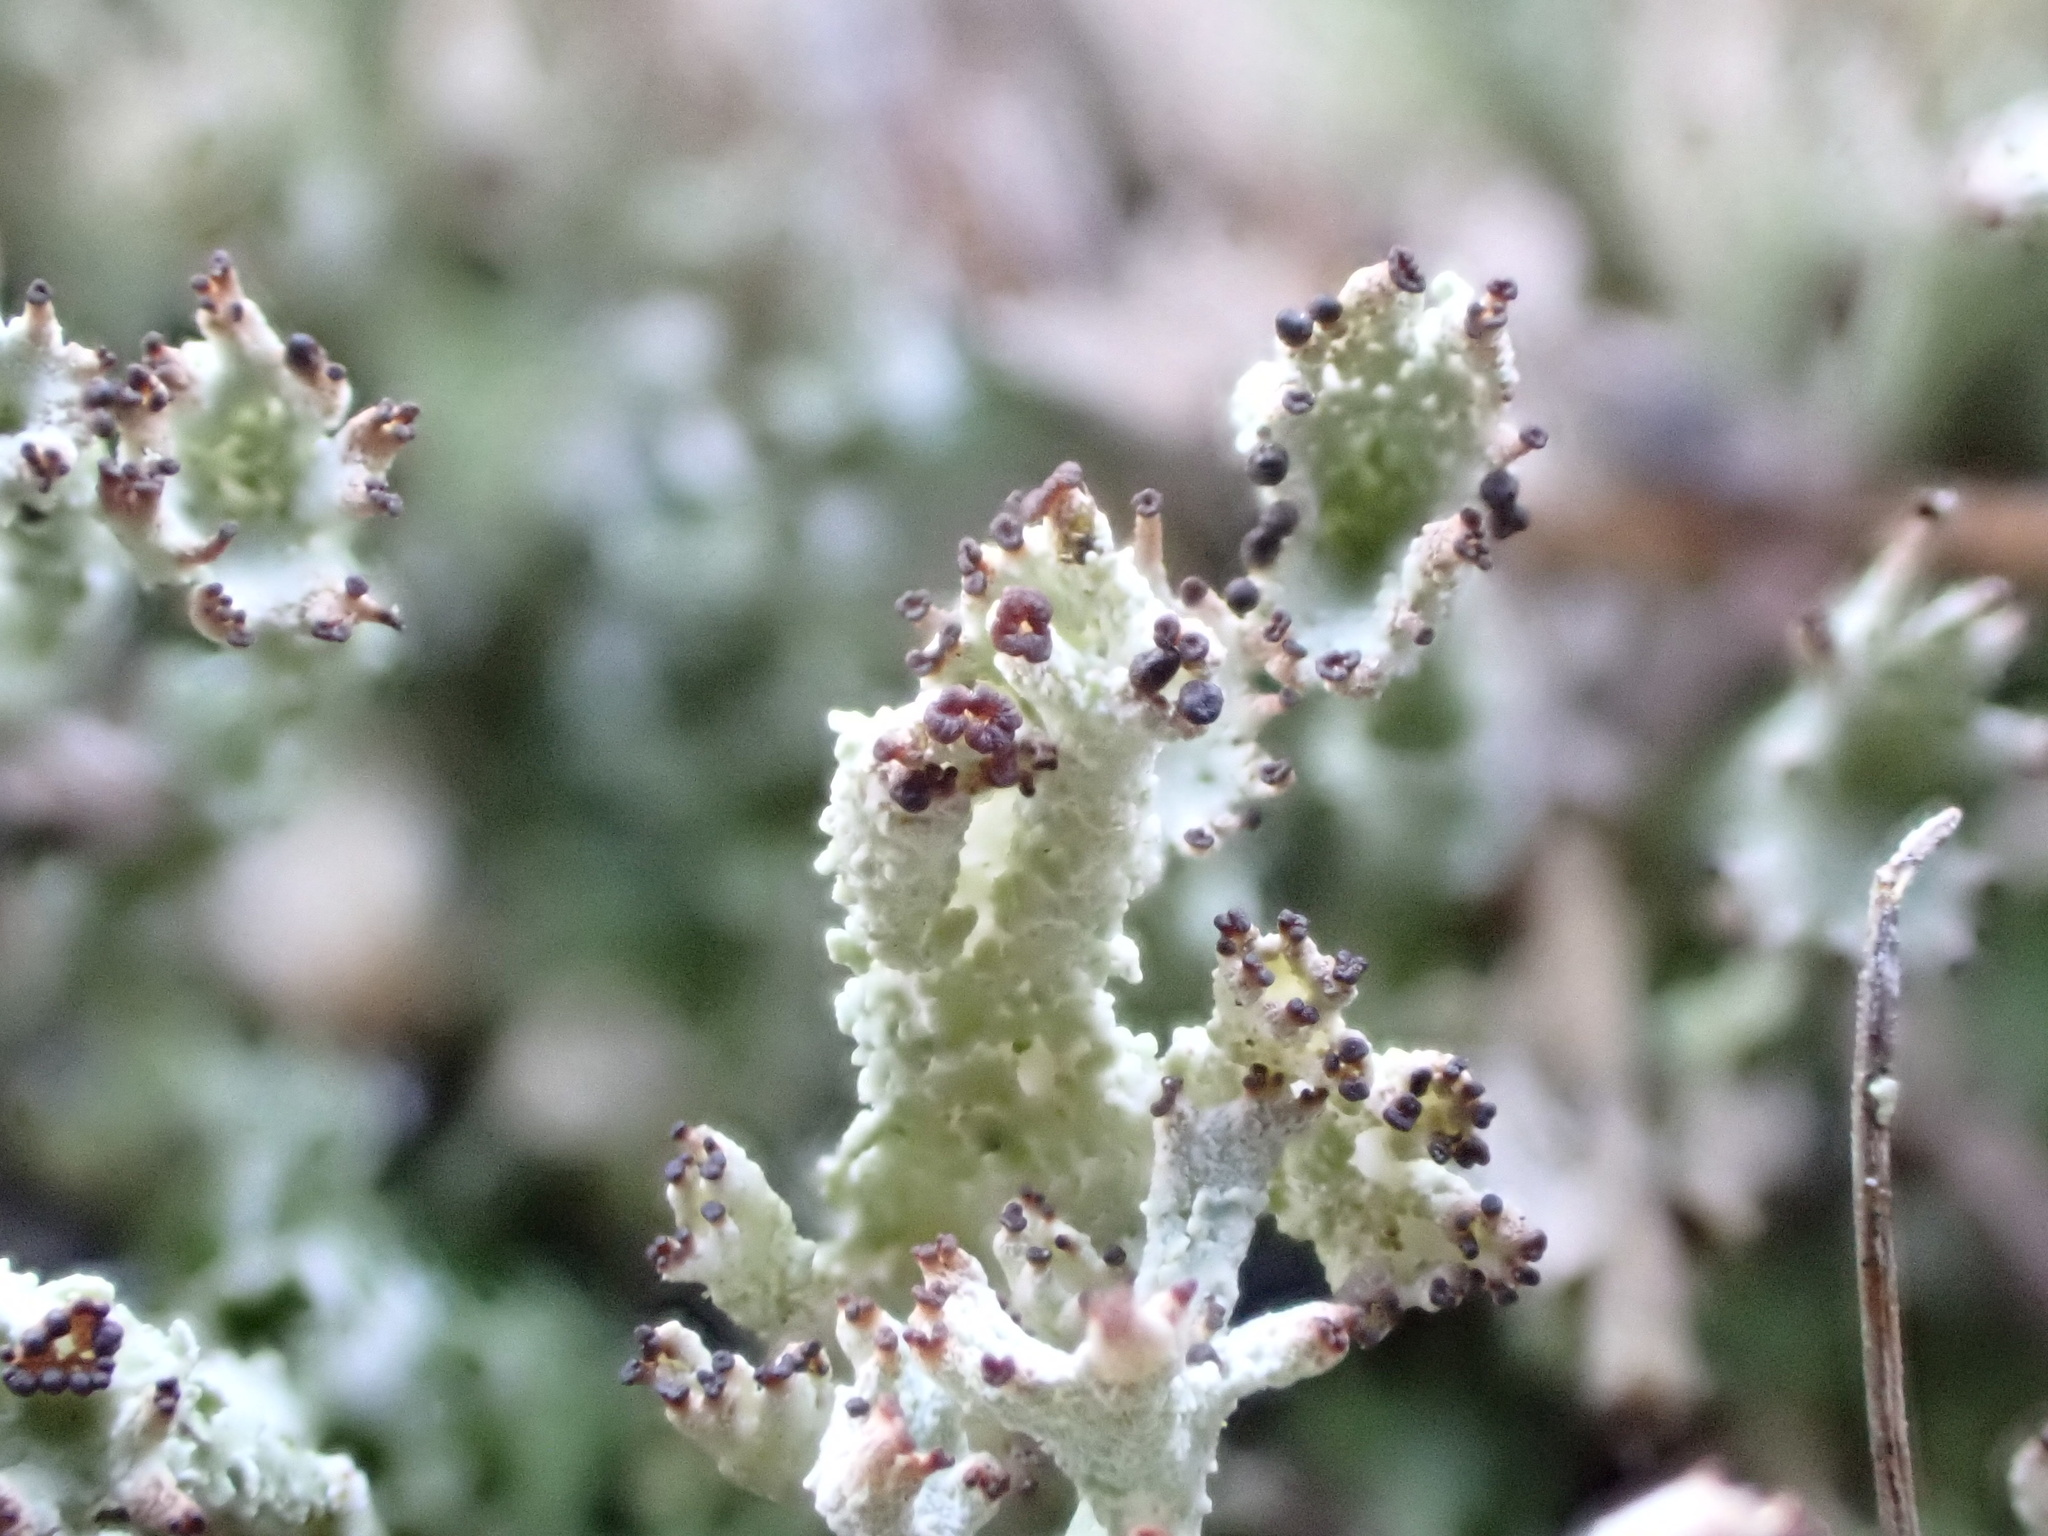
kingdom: Fungi
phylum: Ascomycota
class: Lecanoromycetes
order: Lecanorales
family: Cladoniaceae
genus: Cladonia
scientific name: Cladonia ramulosa
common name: Branched pixie-cup lichen
